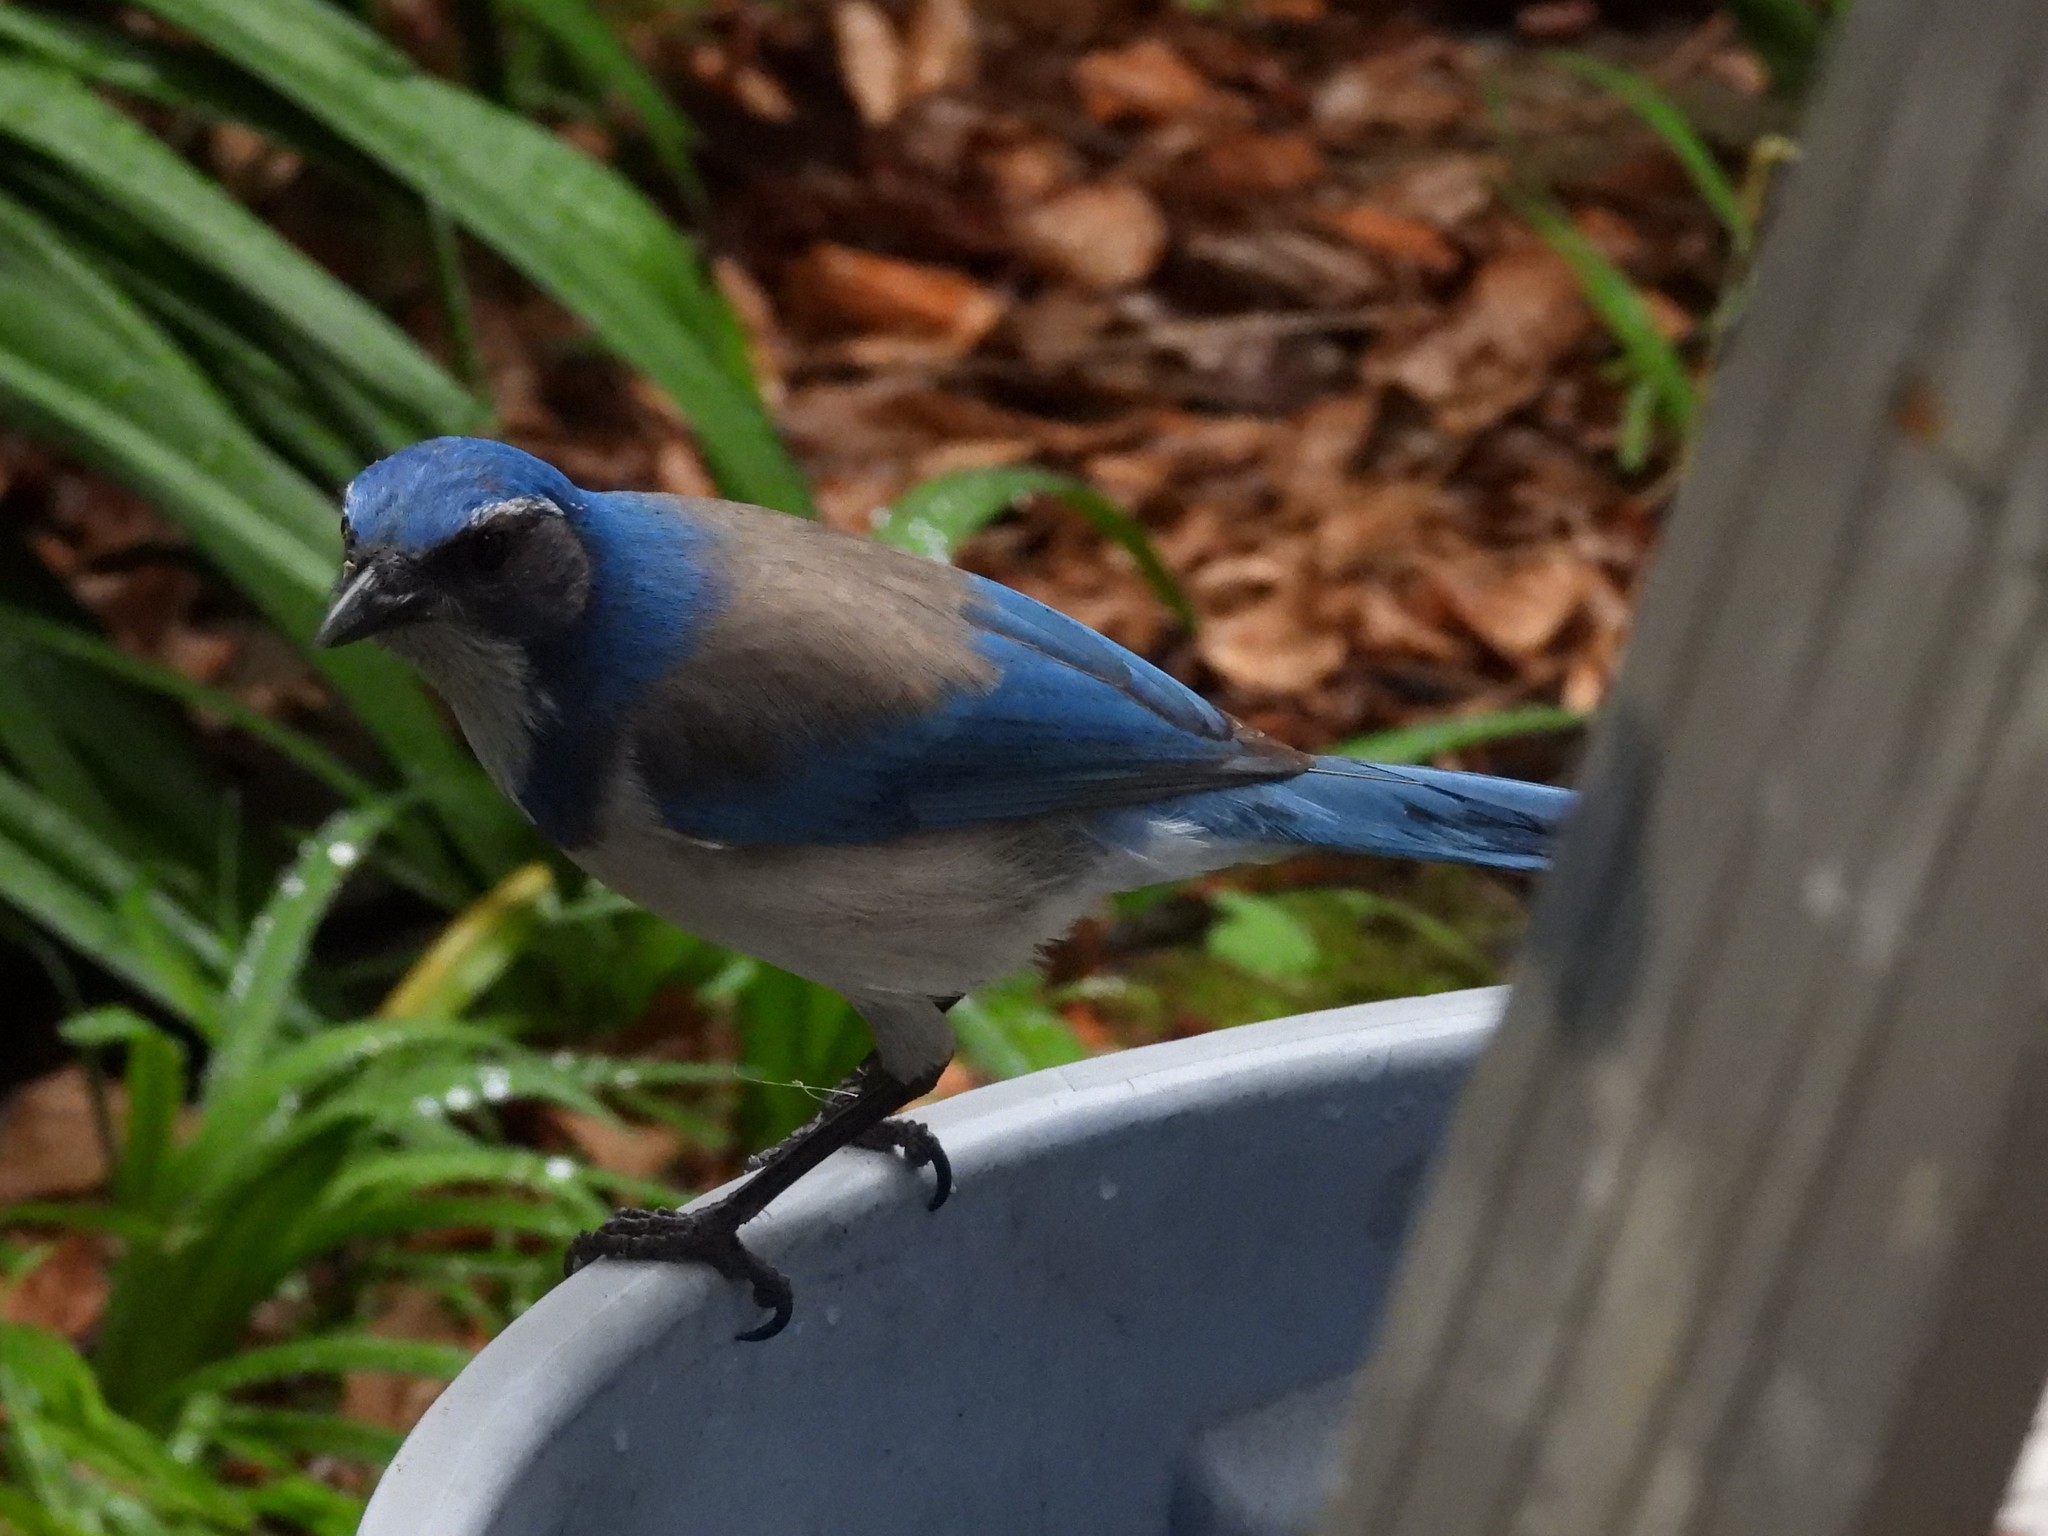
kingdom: Animalia
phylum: Chordata
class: Aves
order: Passeriformes
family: Corvidae
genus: Aphelocoma
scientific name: Aphelocoma californica
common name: California scrub-jay
